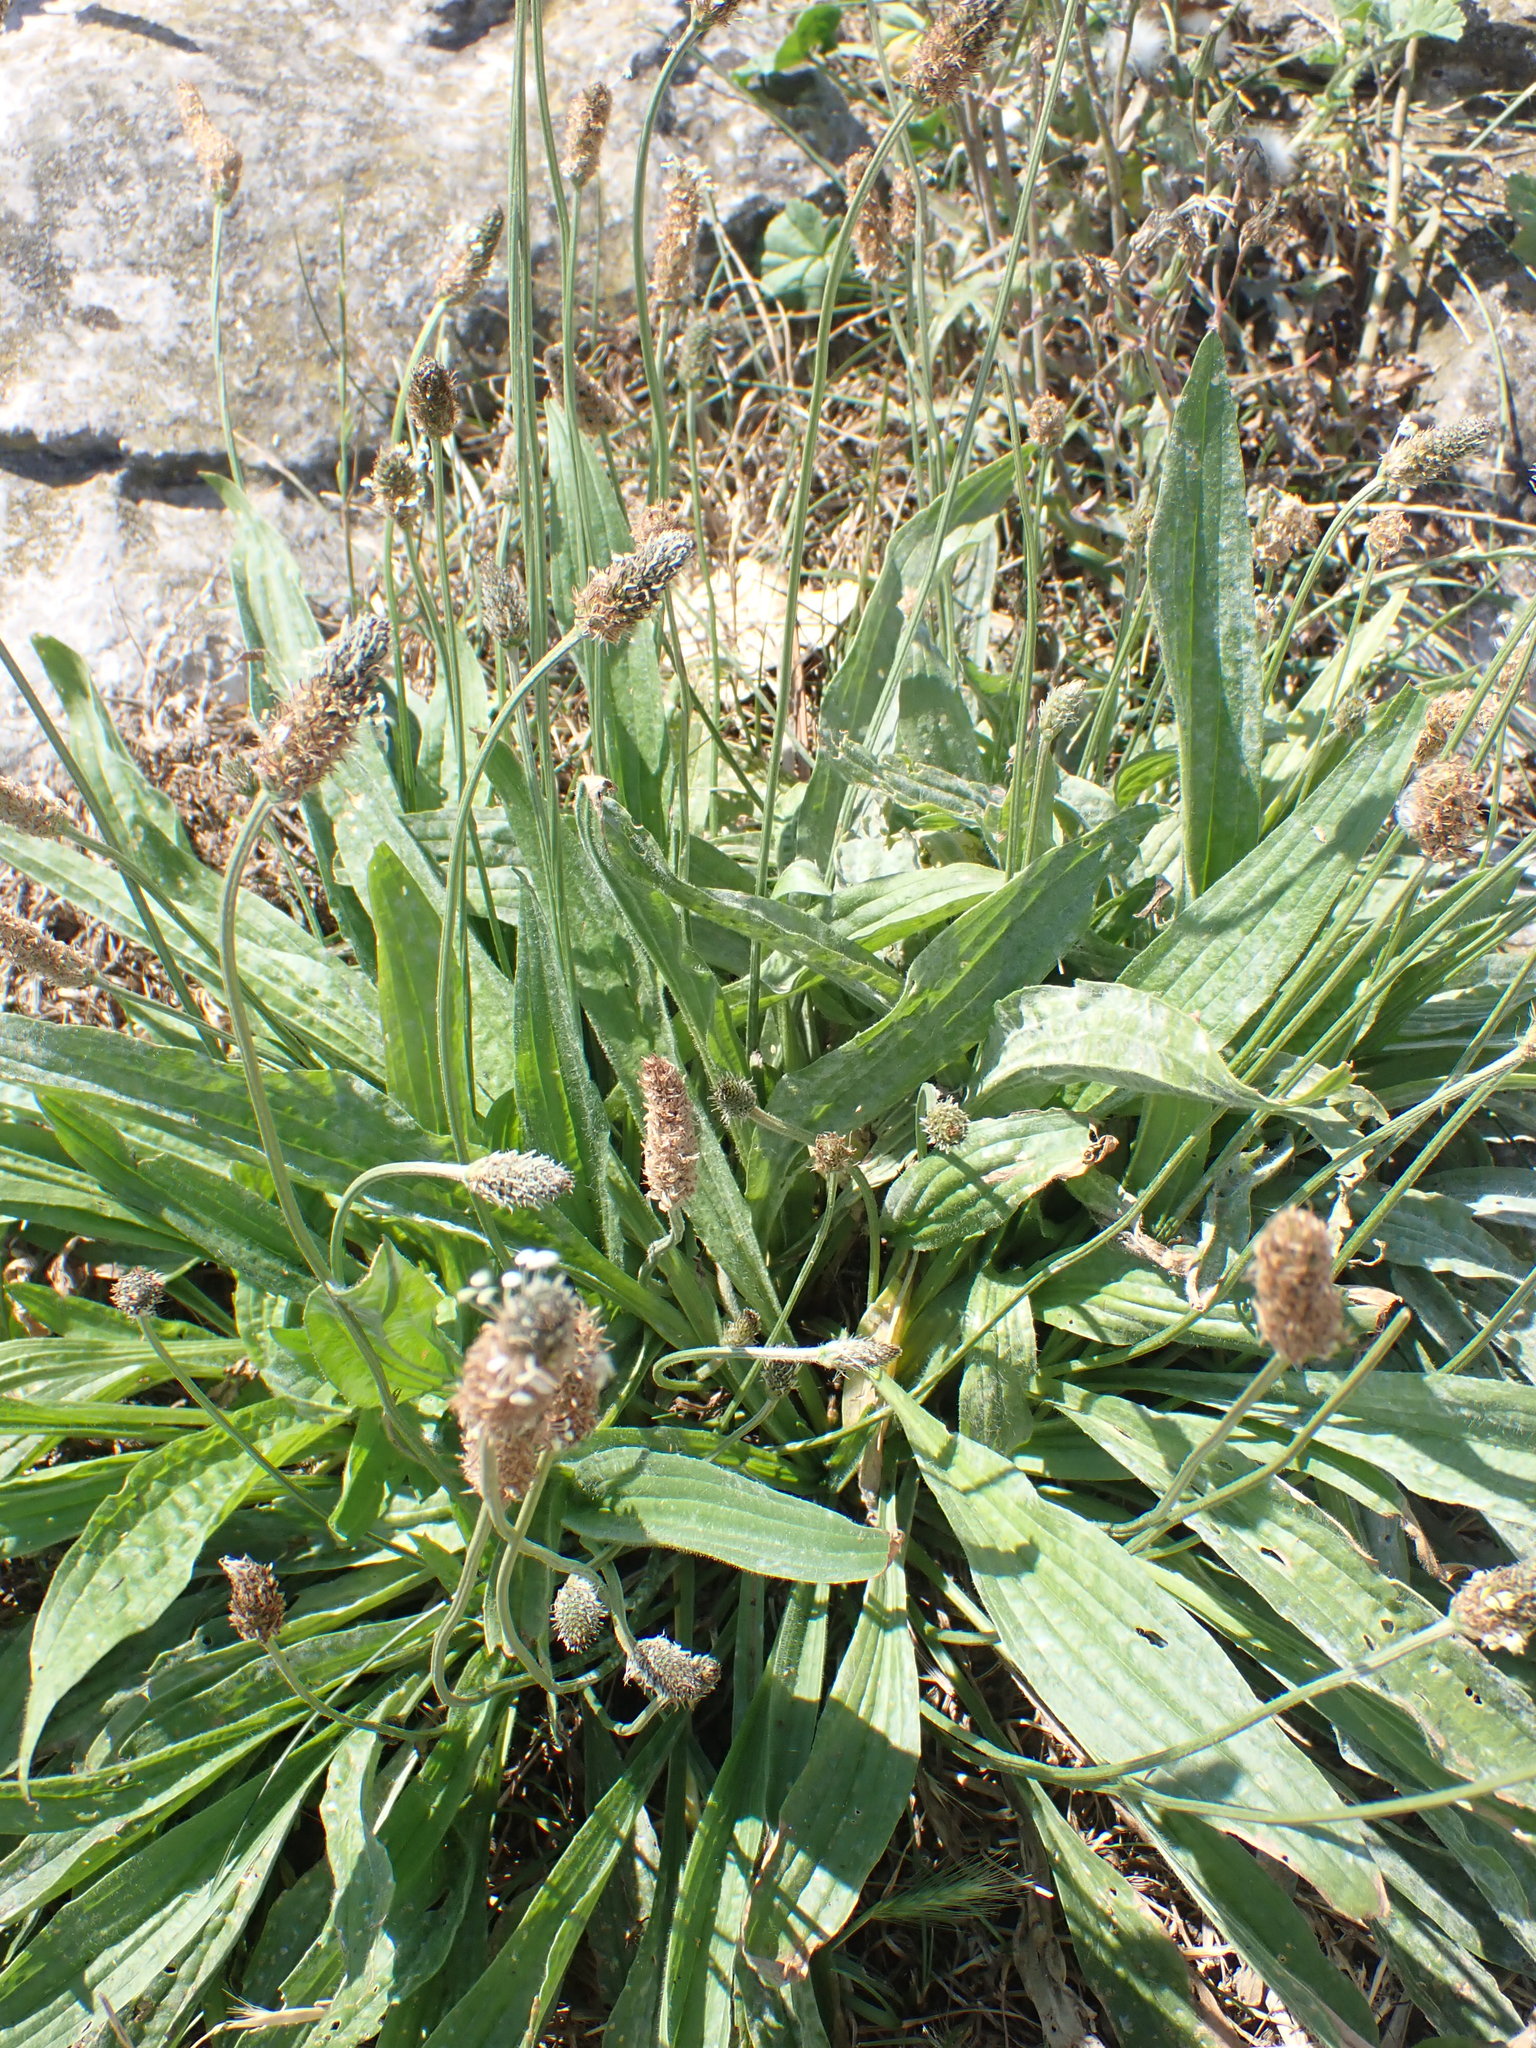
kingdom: Plantae
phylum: Tracheophyta
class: Magnoliopsida
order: Lamiales
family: Plantaginaceae
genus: Plantago
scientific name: Plantago lanceolata
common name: Ribwort plantain
